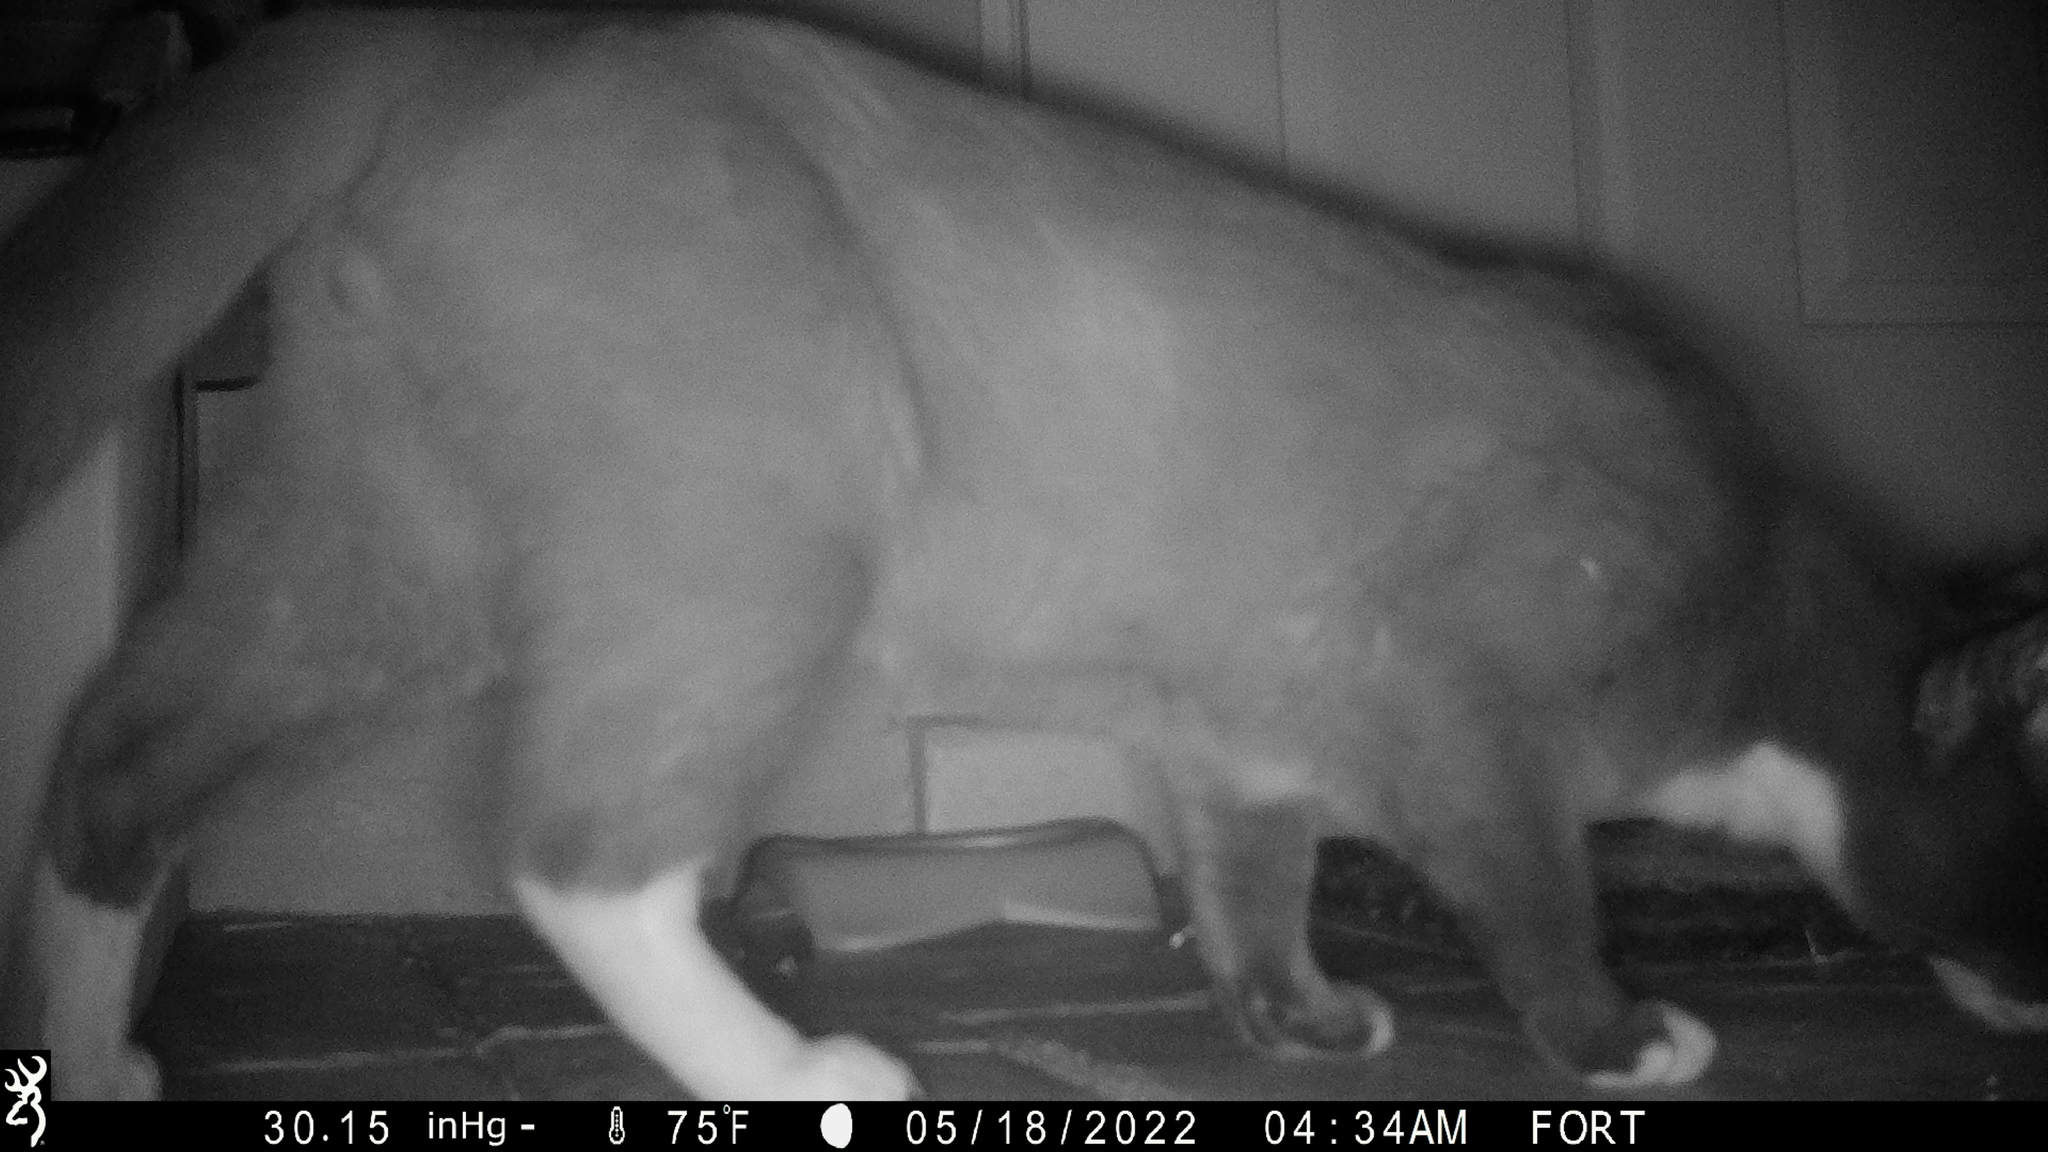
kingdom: Animalia
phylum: Chordata
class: Mammalia
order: Carnivora
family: Felidae
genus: Felis
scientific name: Felis catus
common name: Domestic cat
